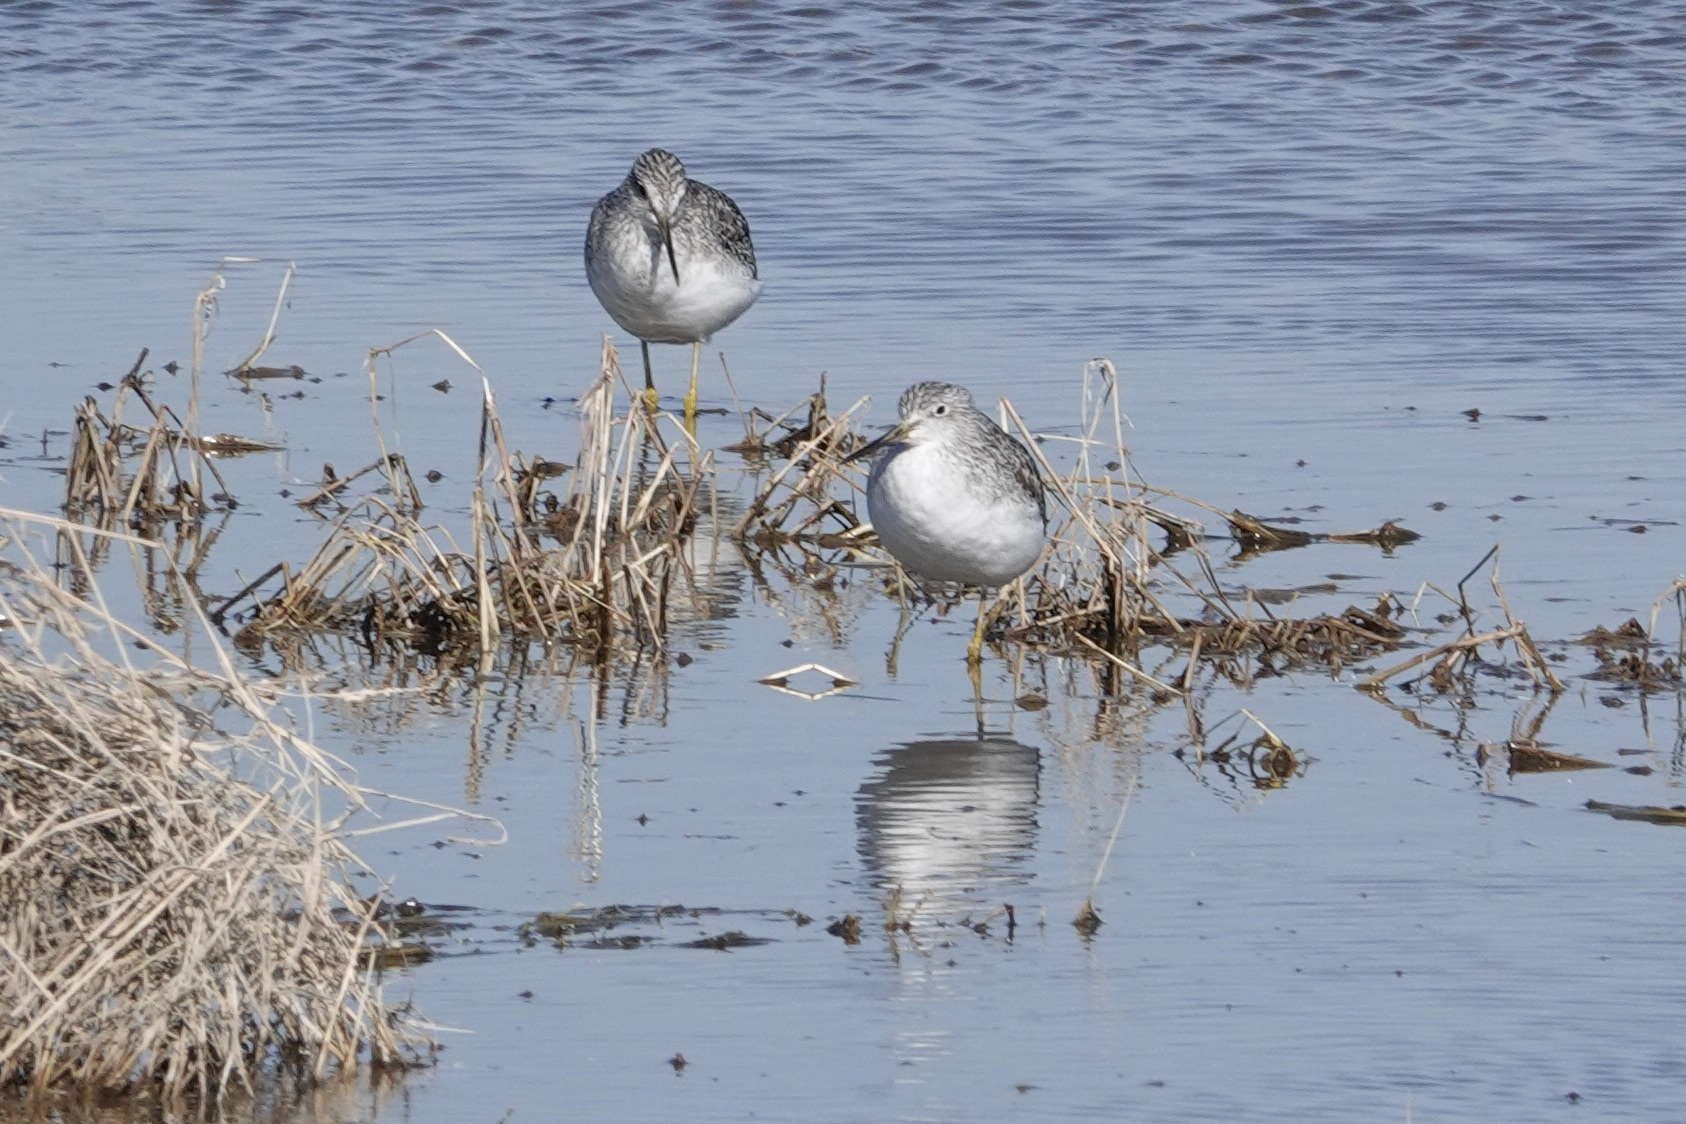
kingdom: Animalia
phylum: Chordata
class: Aves
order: Charadriiformes
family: Scolopacidae
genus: Tringa
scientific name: Tringa melanoleuca
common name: Greater yellowlegs
